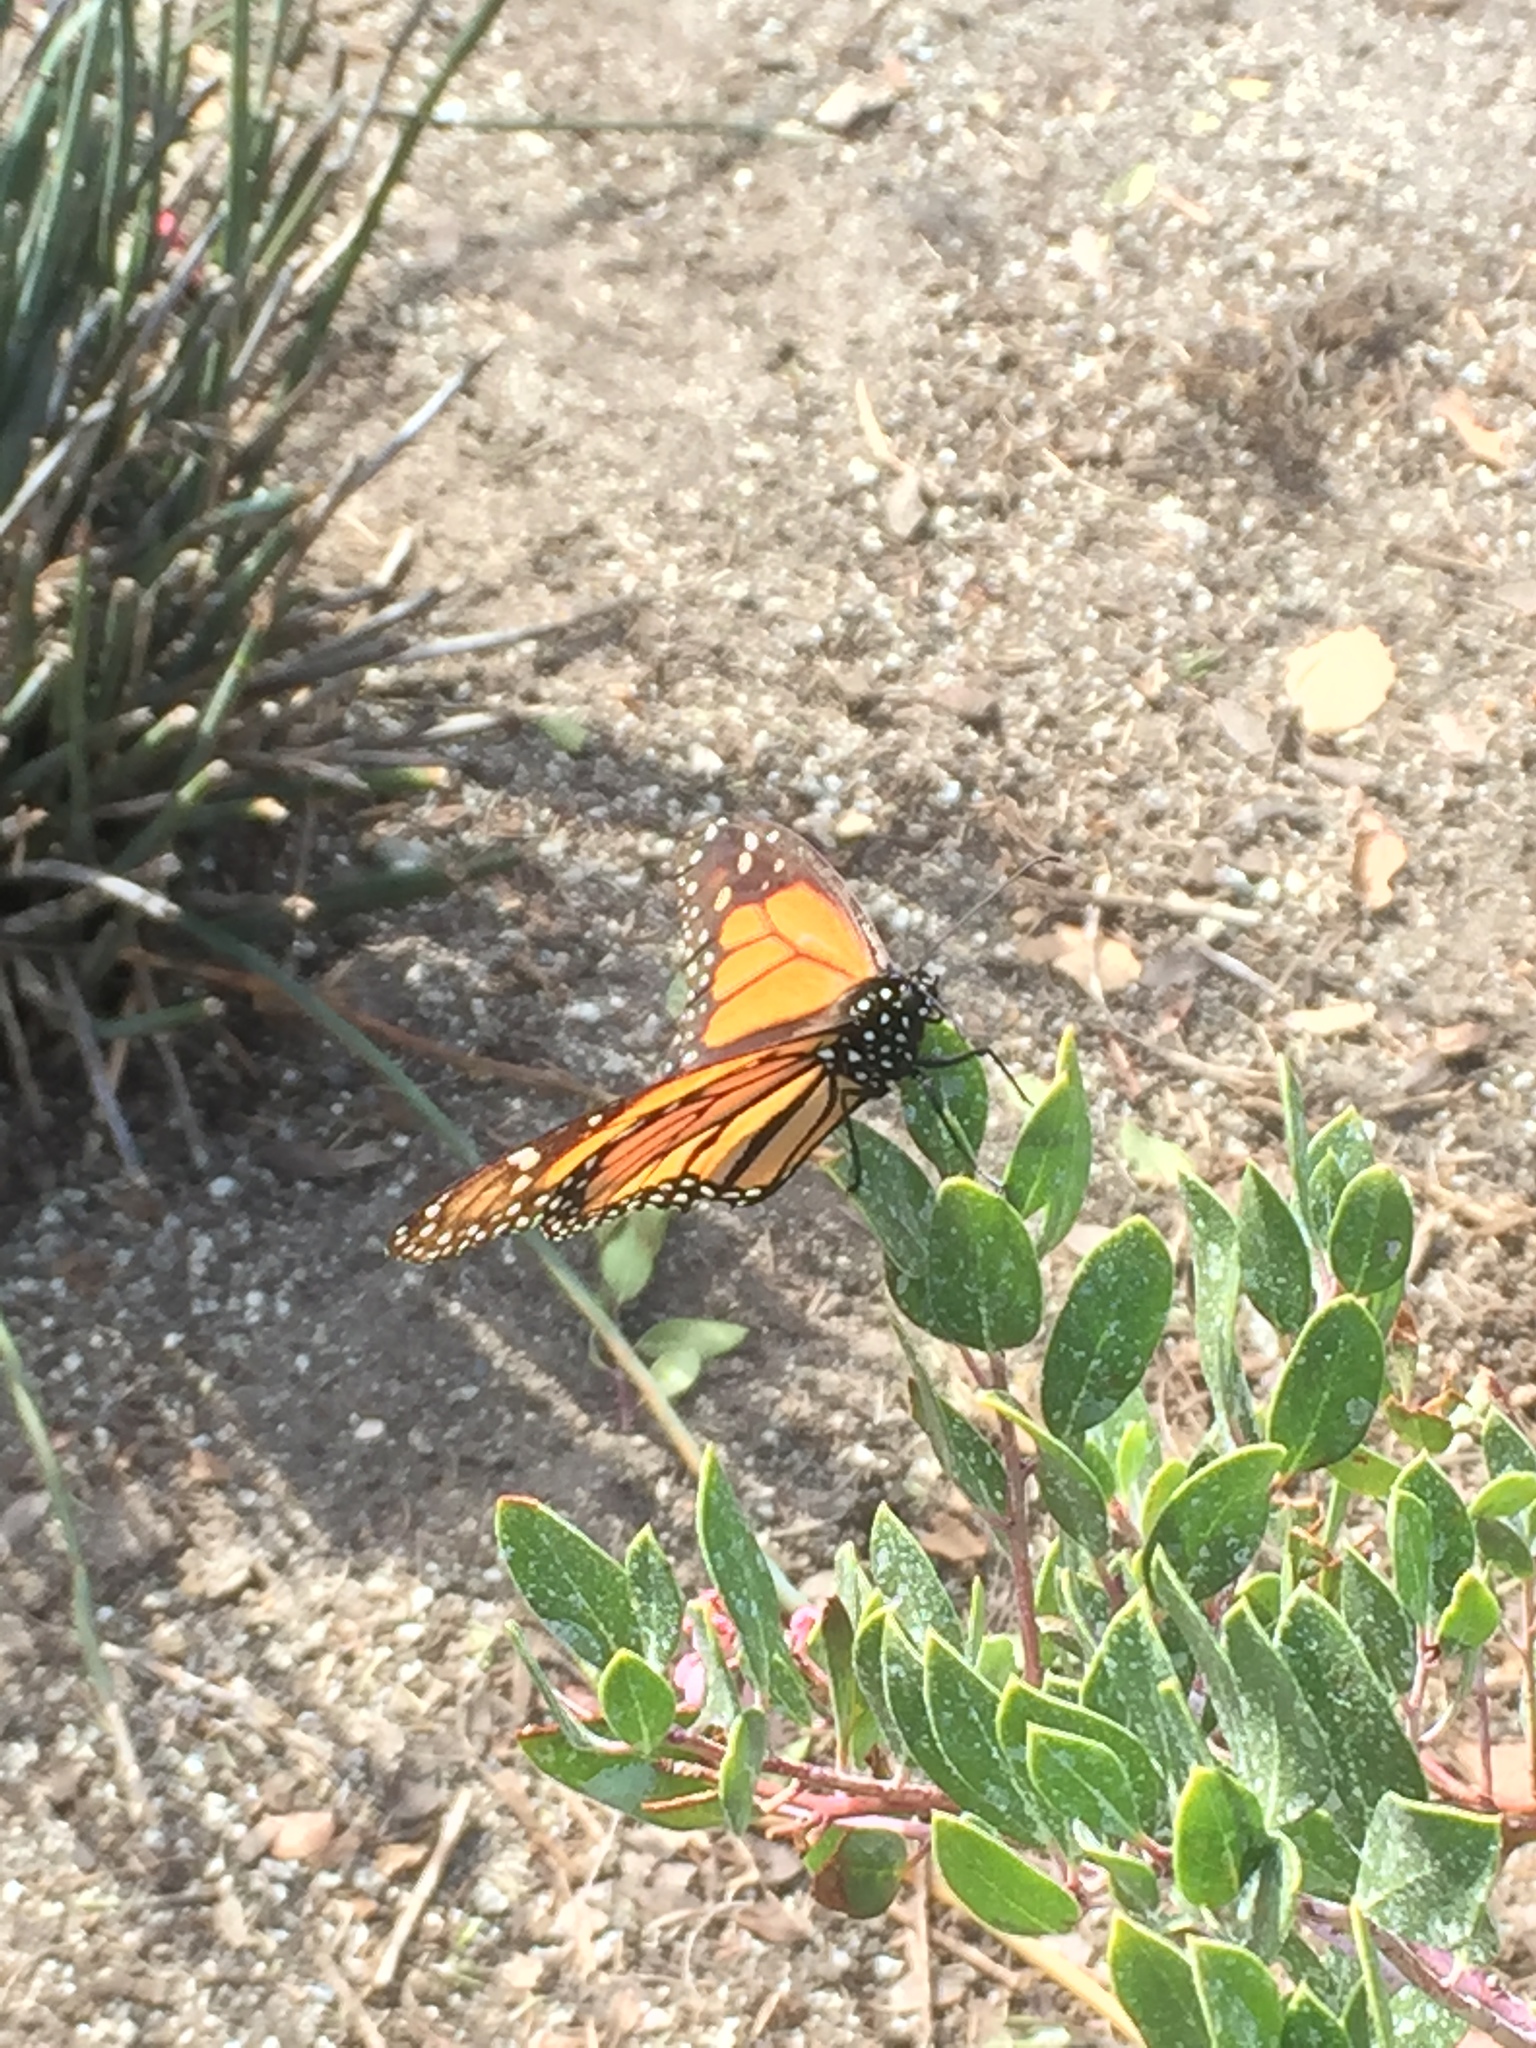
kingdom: Animalia
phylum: Arthropoda
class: Insecta
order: Lepidoptera
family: Nymphalidae
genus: Danaus
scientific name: Danaus plexippus
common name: Monarch
